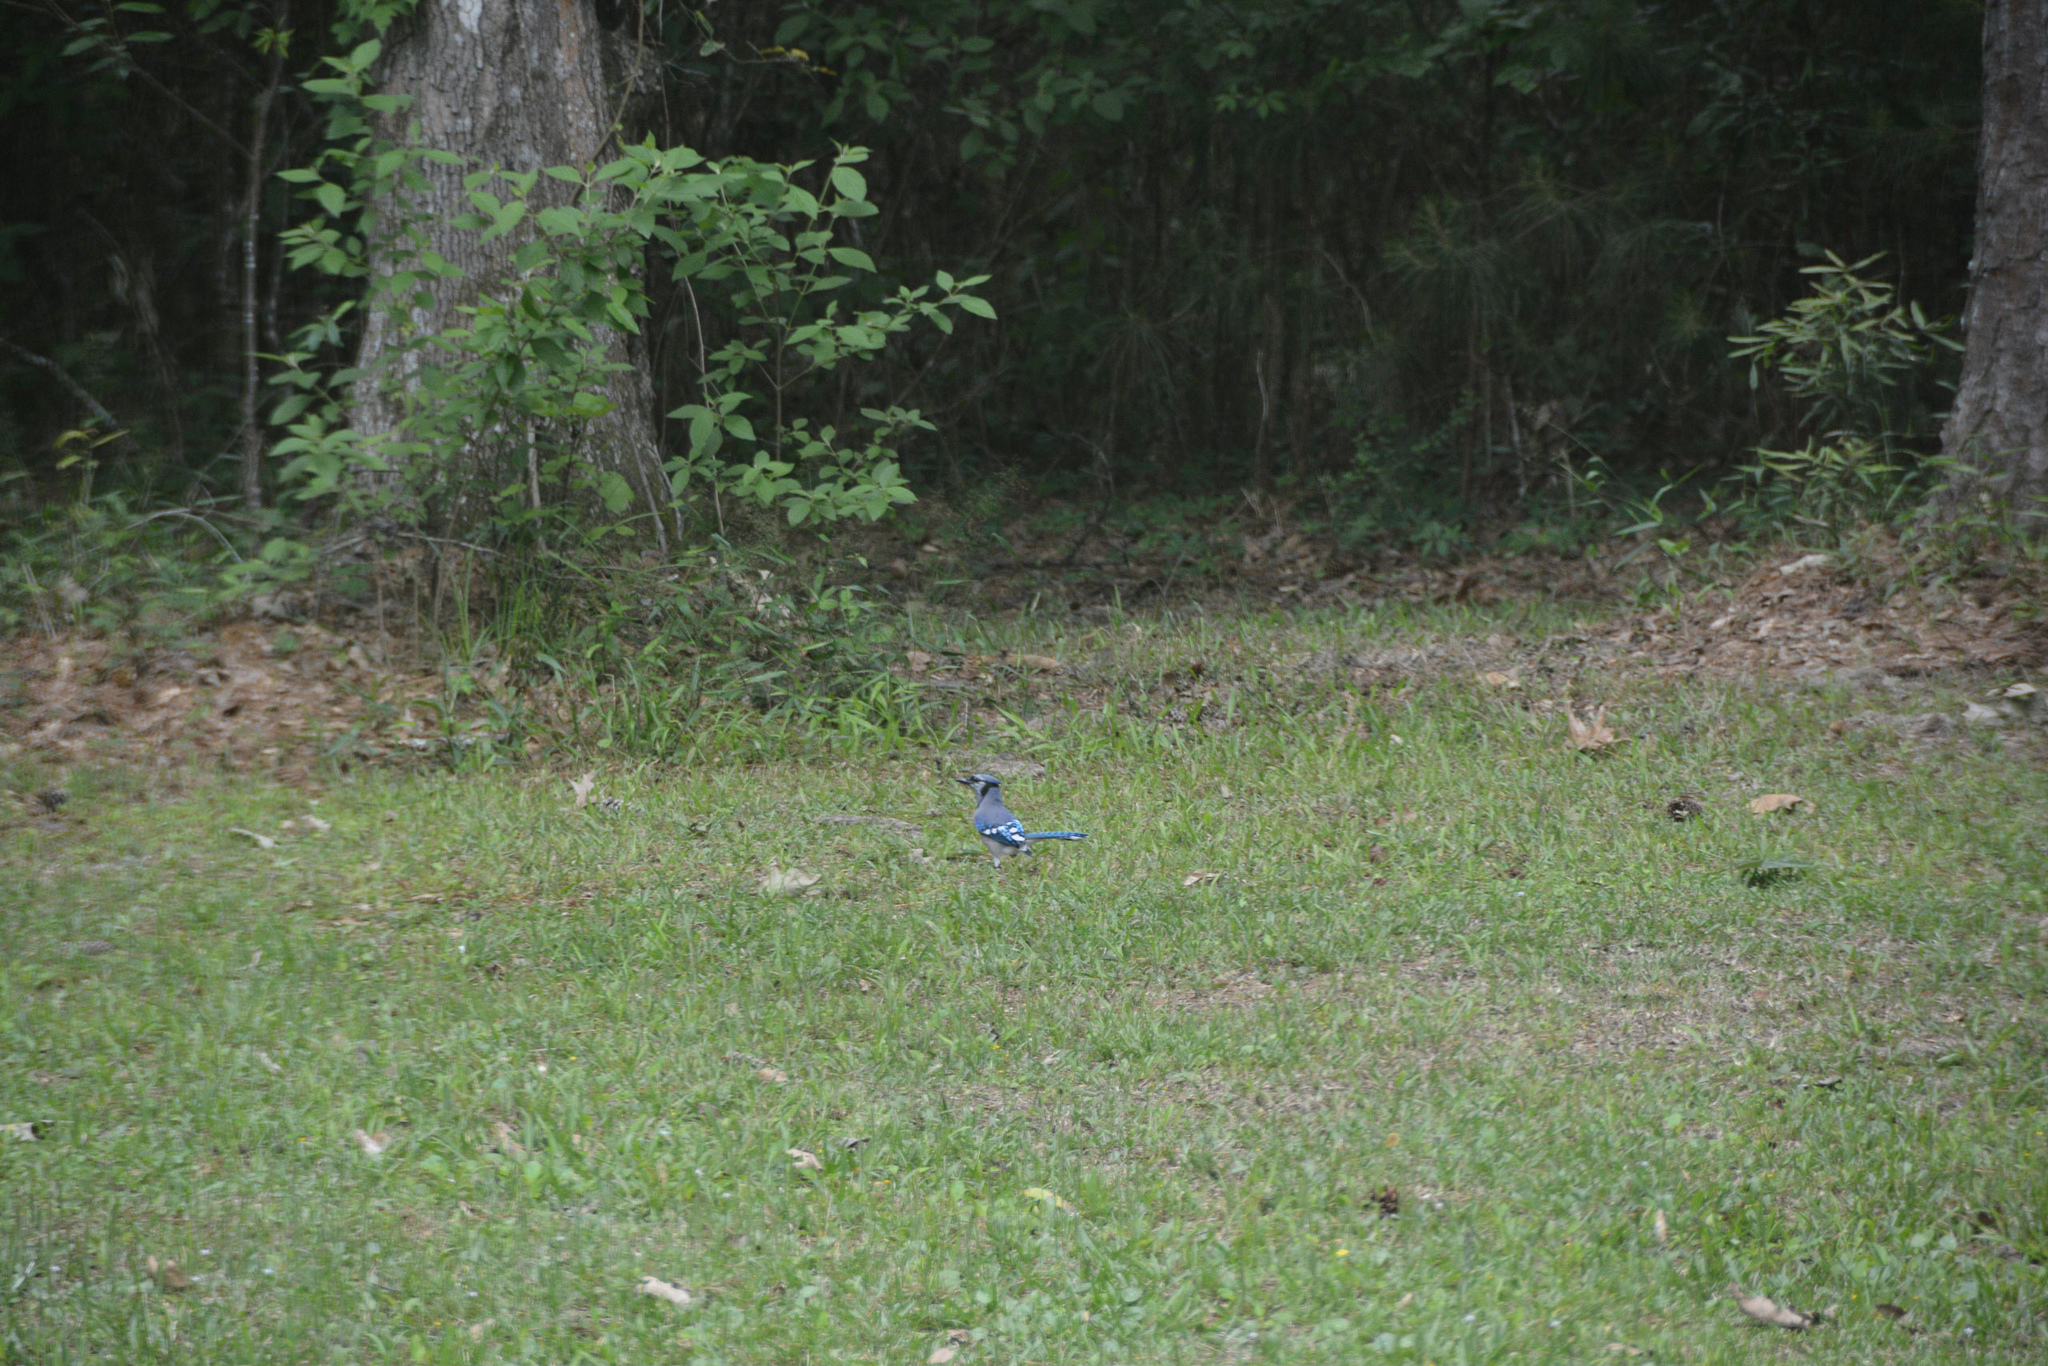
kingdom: Animalia
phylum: Chordata
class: Aves
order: Passeriformes
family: Corvidae
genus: Cyanocitta
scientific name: Cyanocitta cristata
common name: Blue jay
